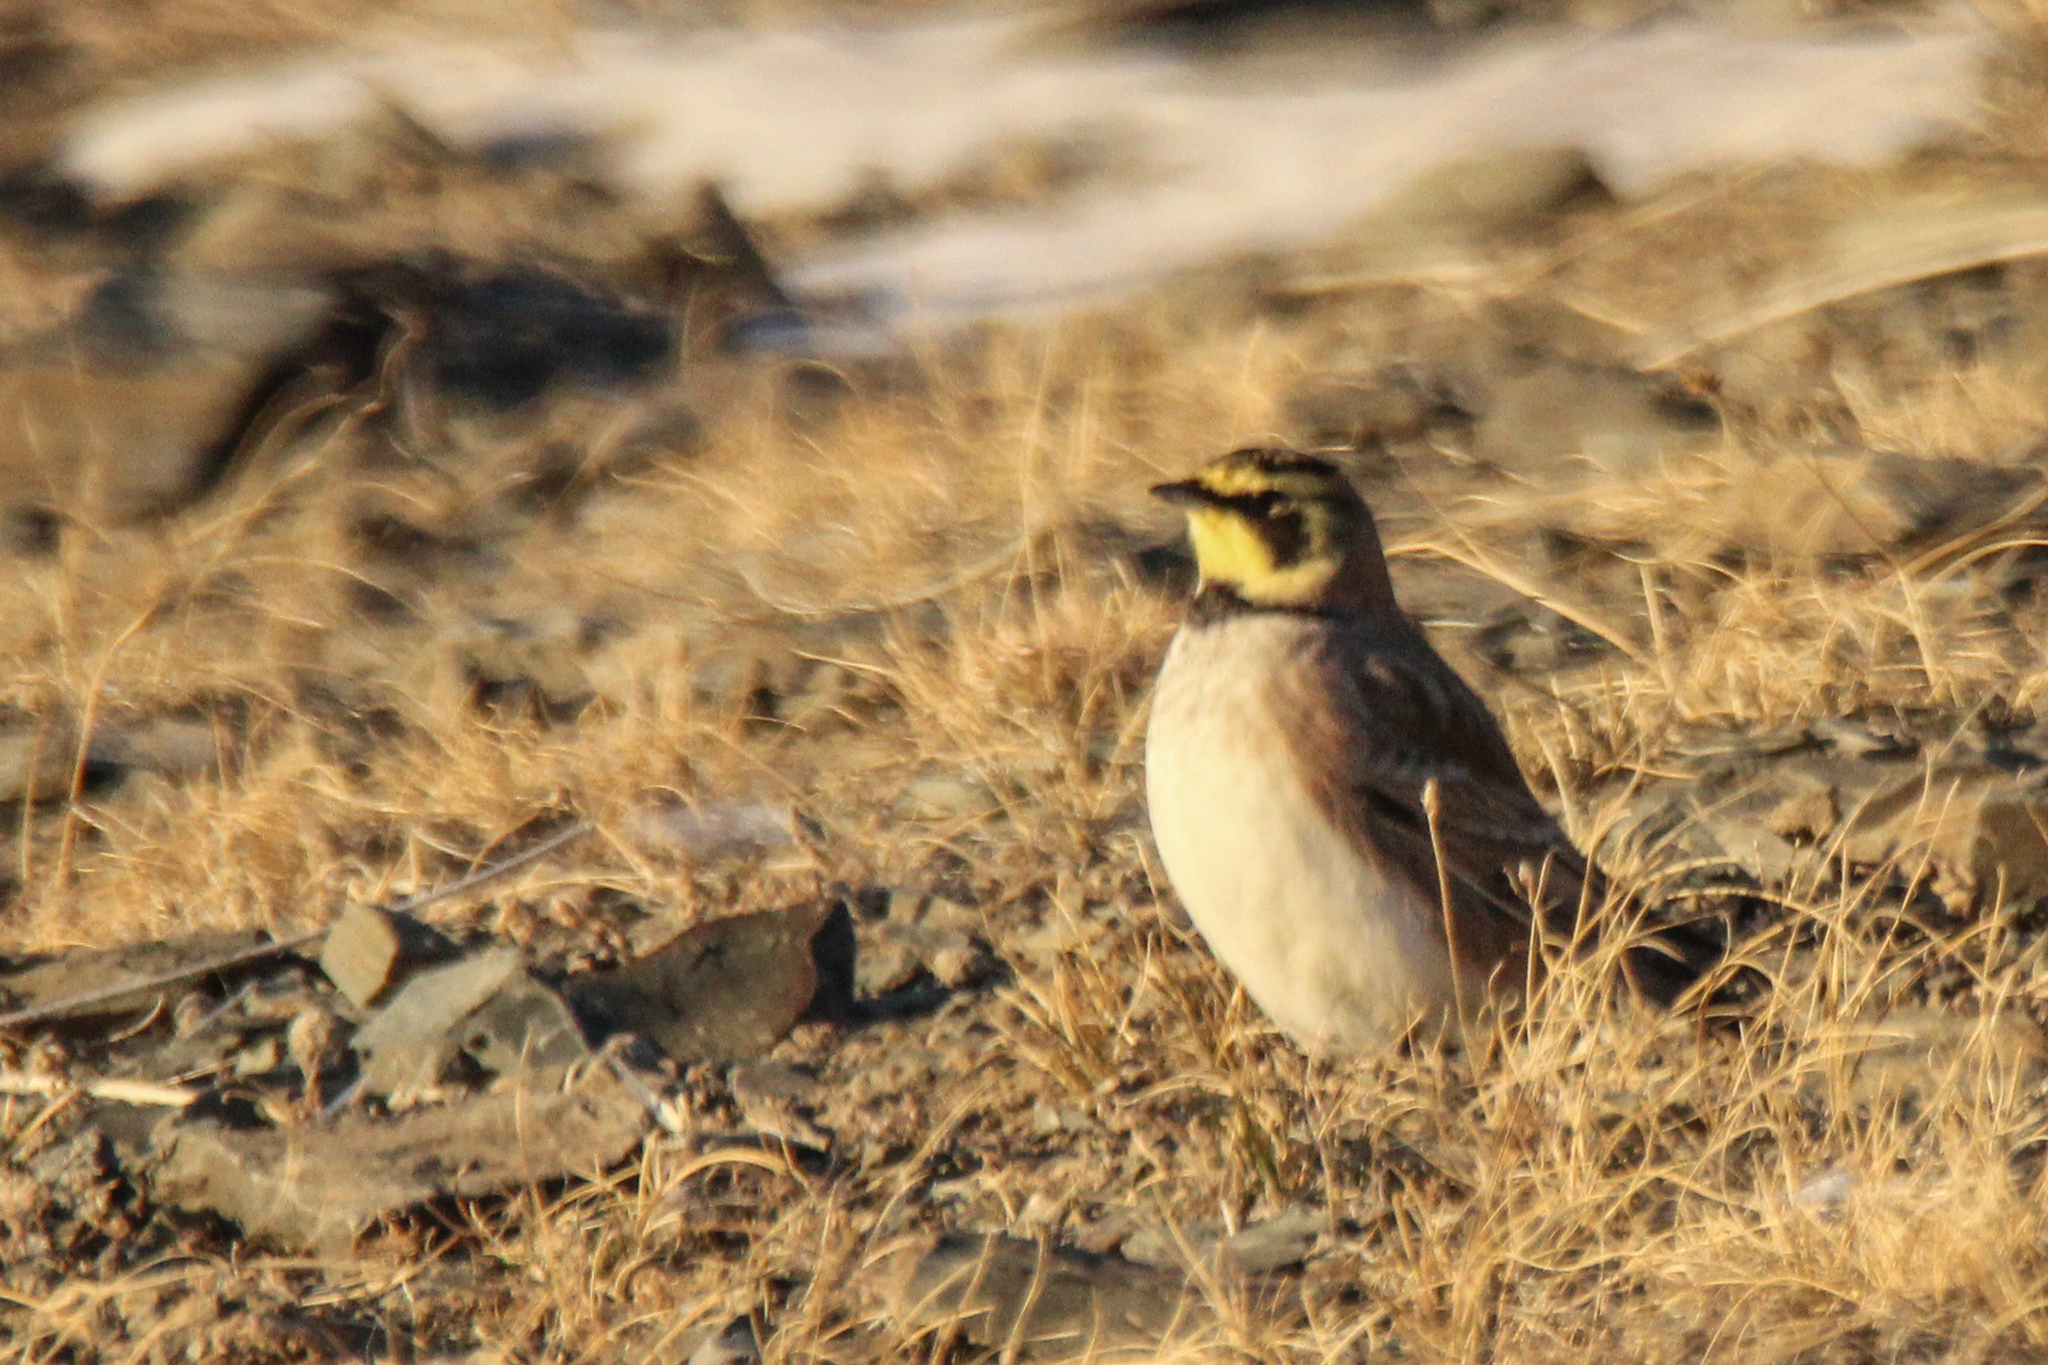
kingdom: Animalia
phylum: Chordata
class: Aves
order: Passeriformes
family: Alaudidae
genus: Eremophila
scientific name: Eremophila alpestris
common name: Horned lark
